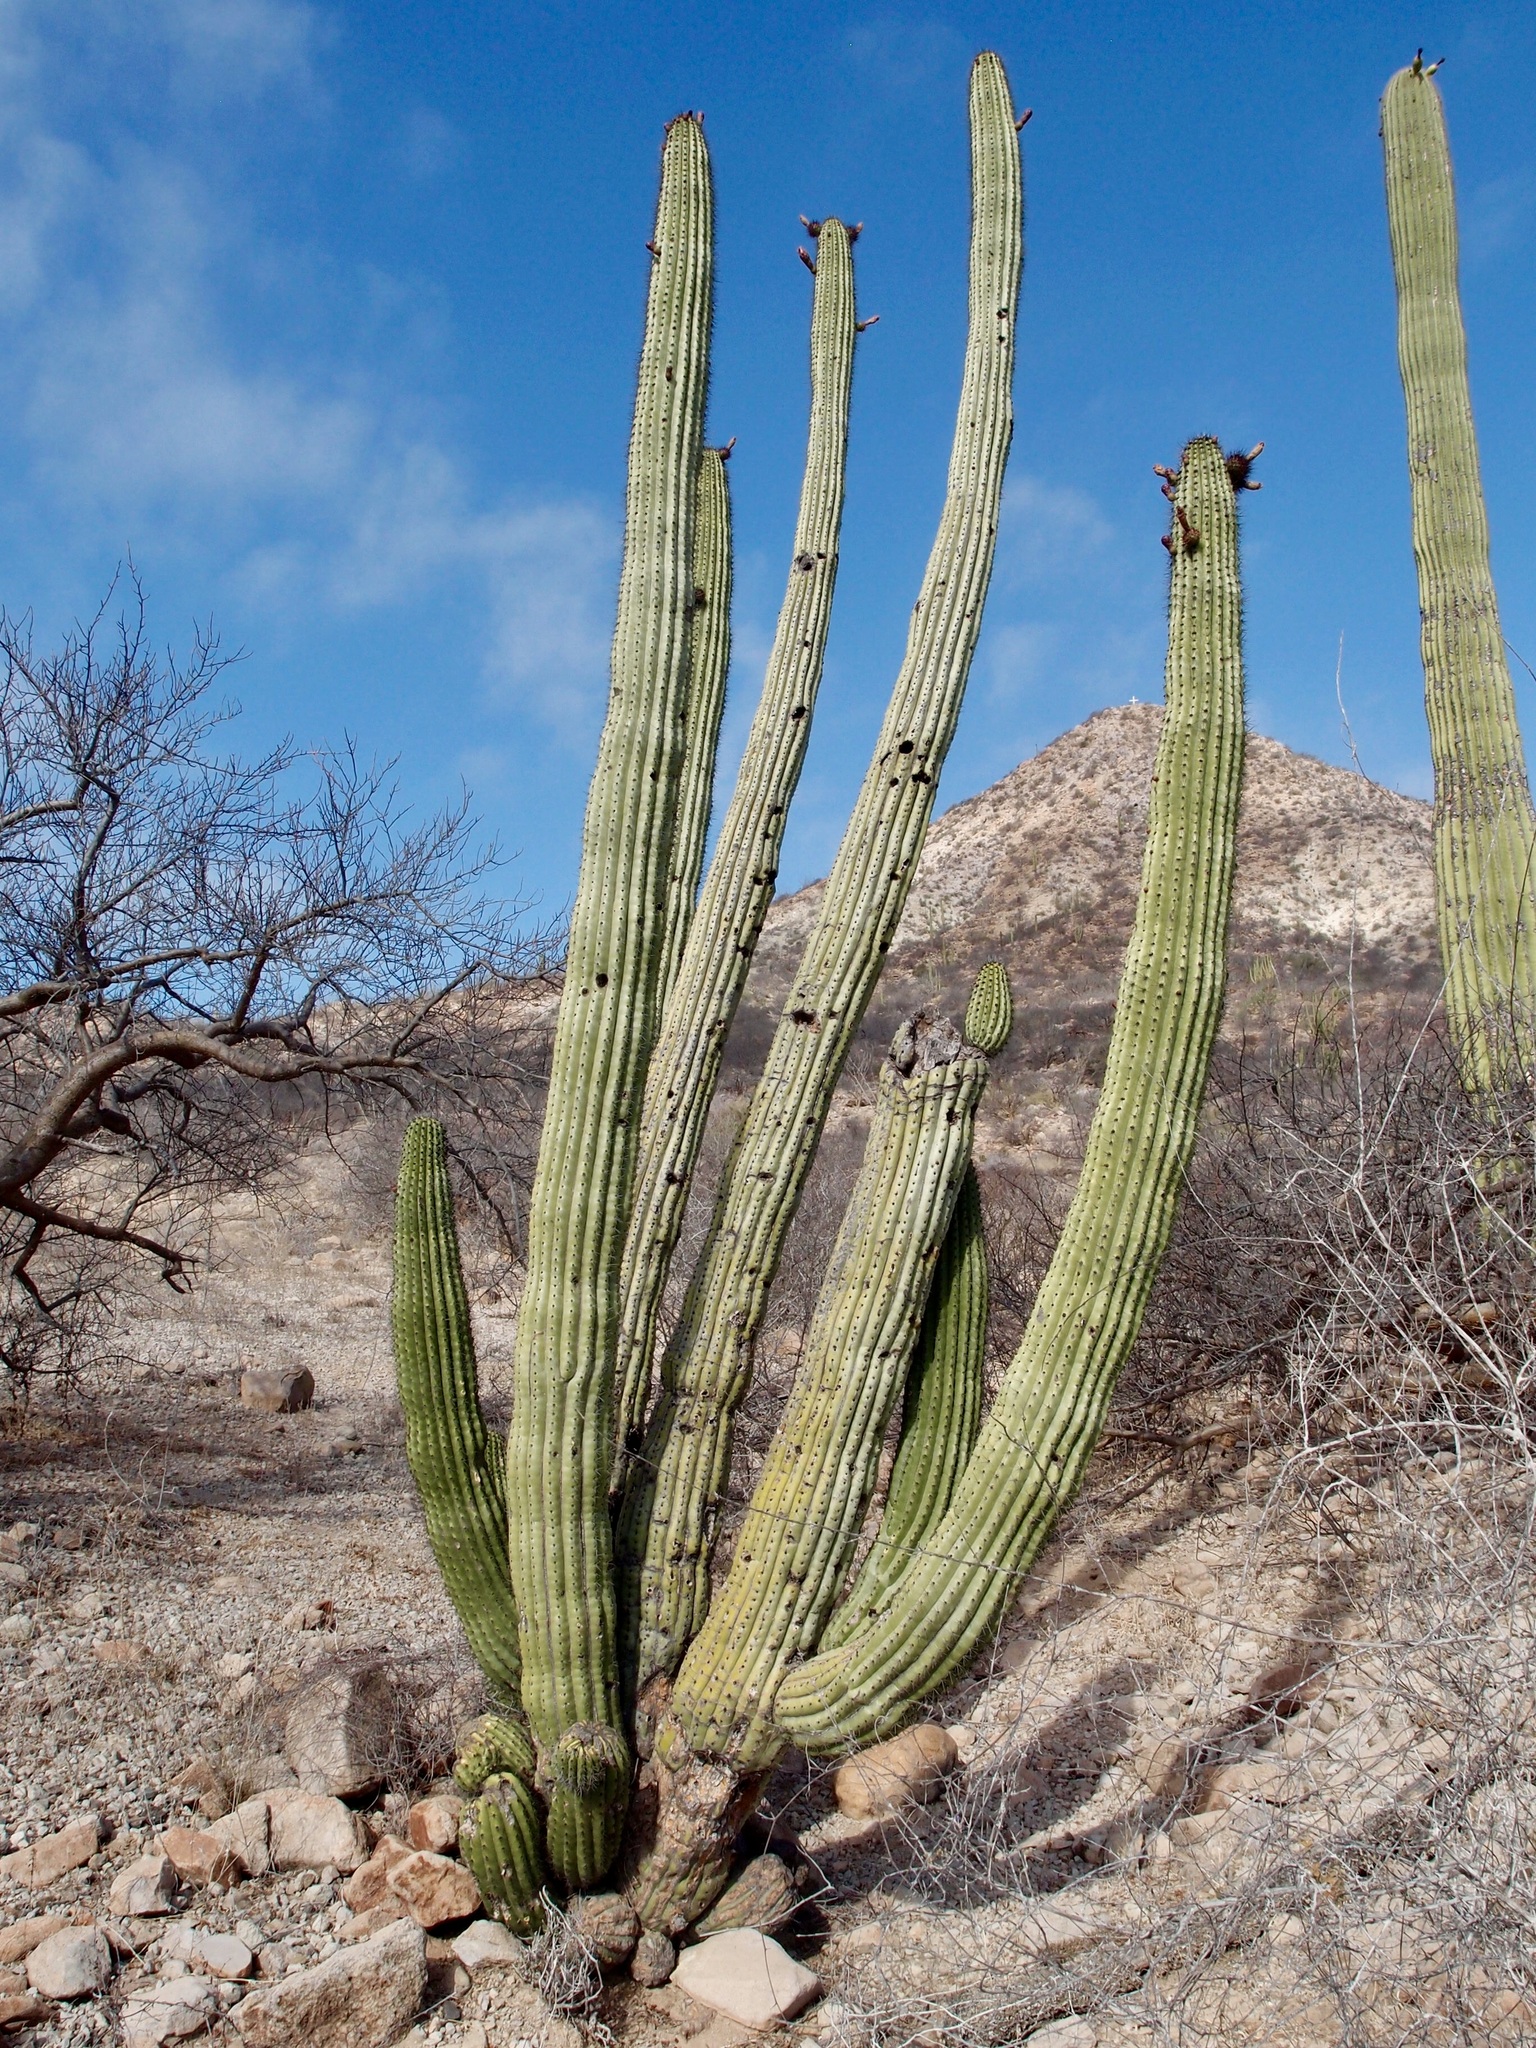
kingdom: Plantae
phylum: Tracheophyta
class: Magnoliopsida
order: Caryophyllales
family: Cactaceae
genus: Stenocereus
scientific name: Stenocereus thurberi
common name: Organ pipe cactus
